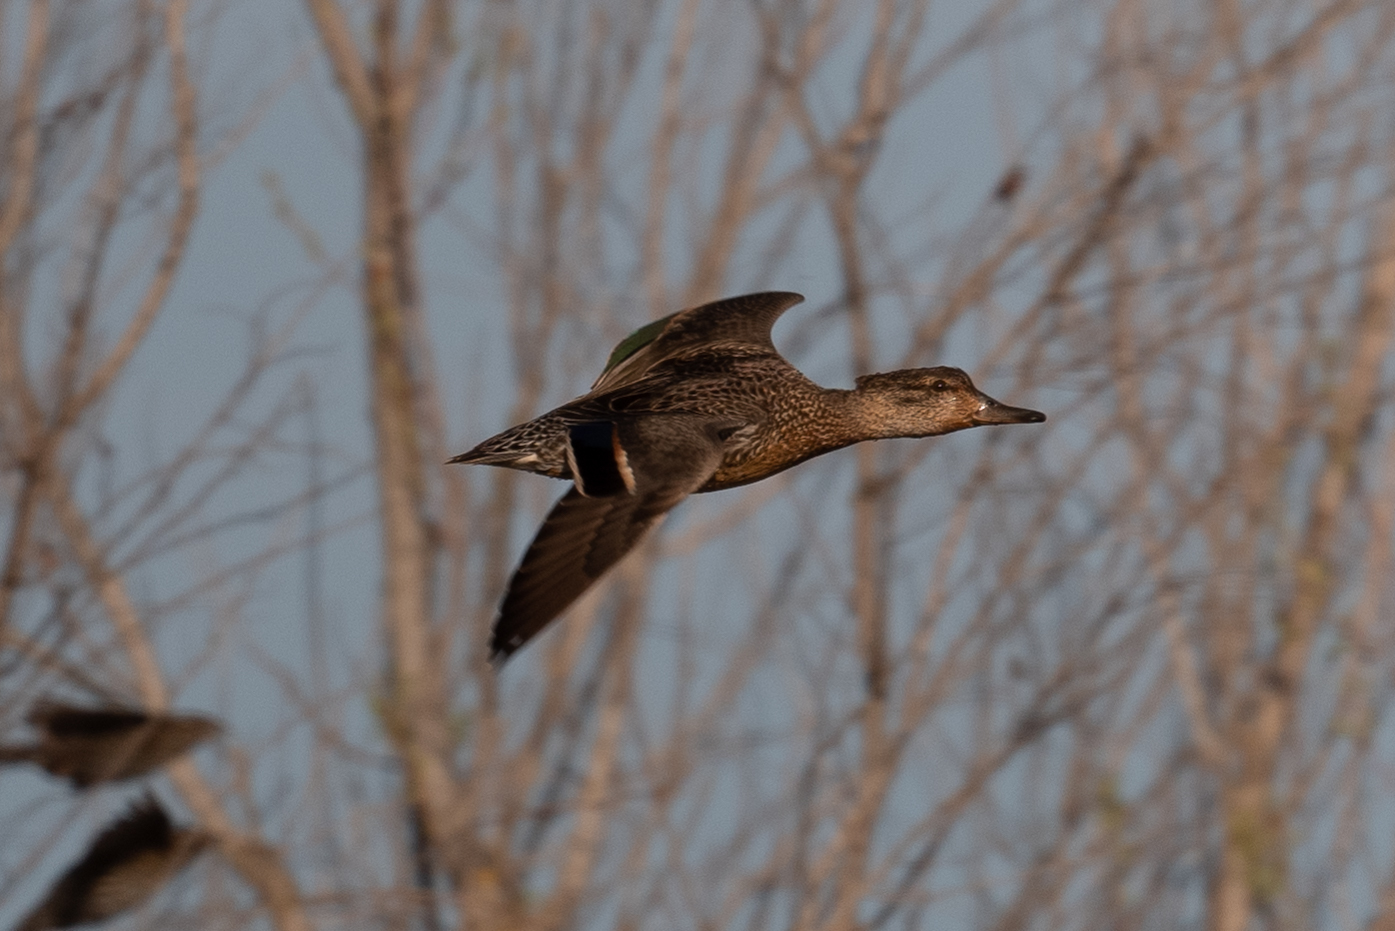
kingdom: Animalia
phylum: Chordata
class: Aves
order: Anseriformes
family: Anatidae
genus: Anas
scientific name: Anas crecca
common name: Eurasian teal
